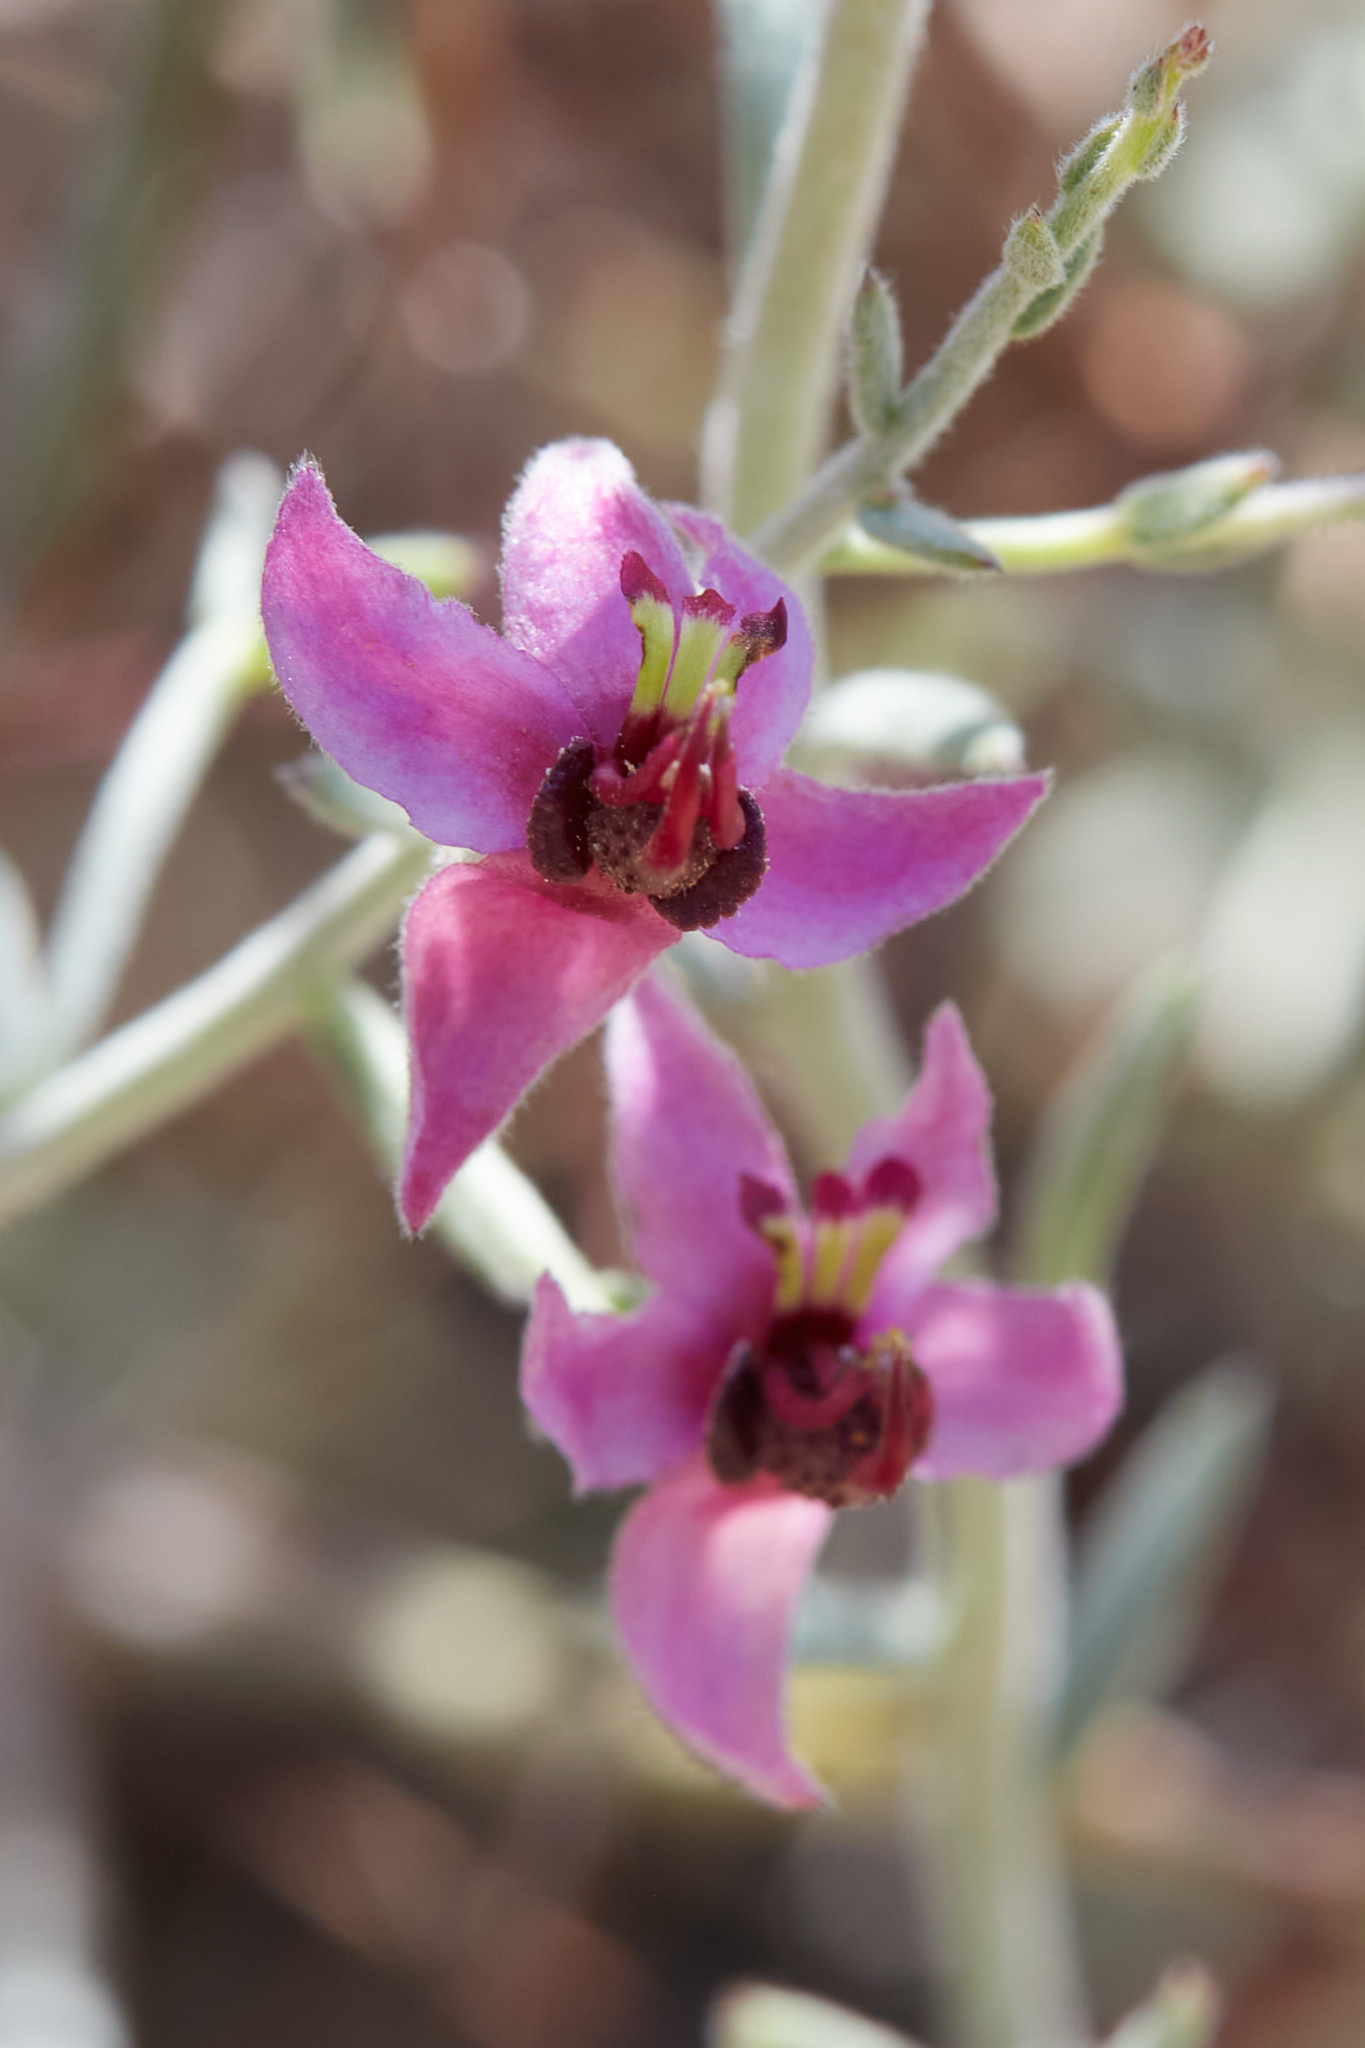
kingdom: Plantae
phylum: Tracheophyta
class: Magnoliopsida
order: Zygophyllales
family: Krameriaceae
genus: Krameria
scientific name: Krameria bicolor
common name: White ratany
